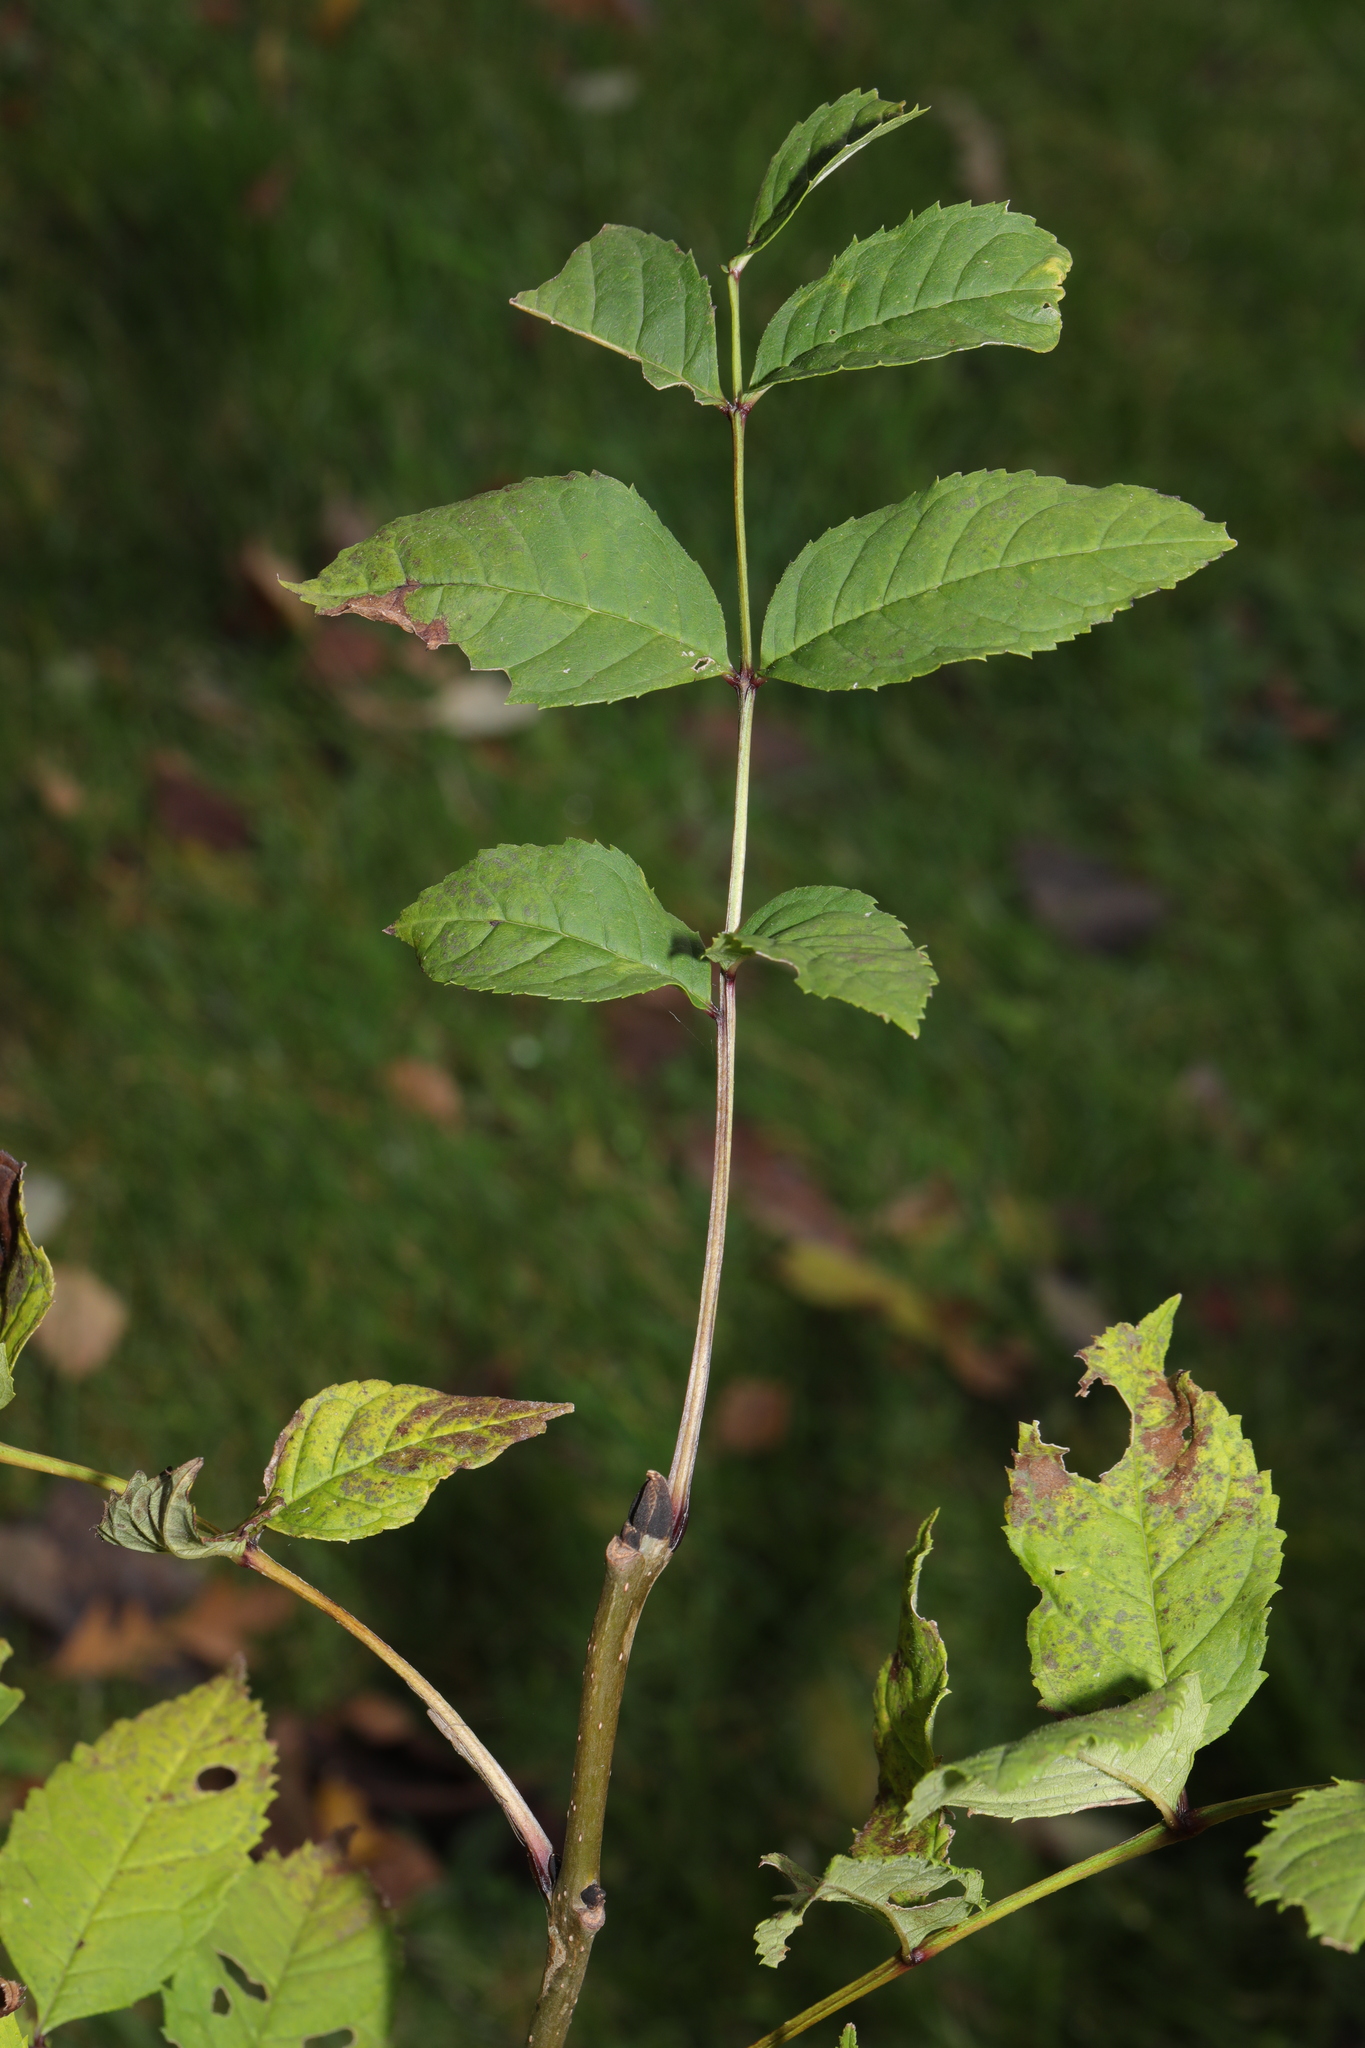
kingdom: Plantae
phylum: Tracheophyta
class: Magnoliopsida
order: Lamiales
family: Oleaceae
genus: Fraxinus
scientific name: Fraxinus excelsior
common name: European ash
